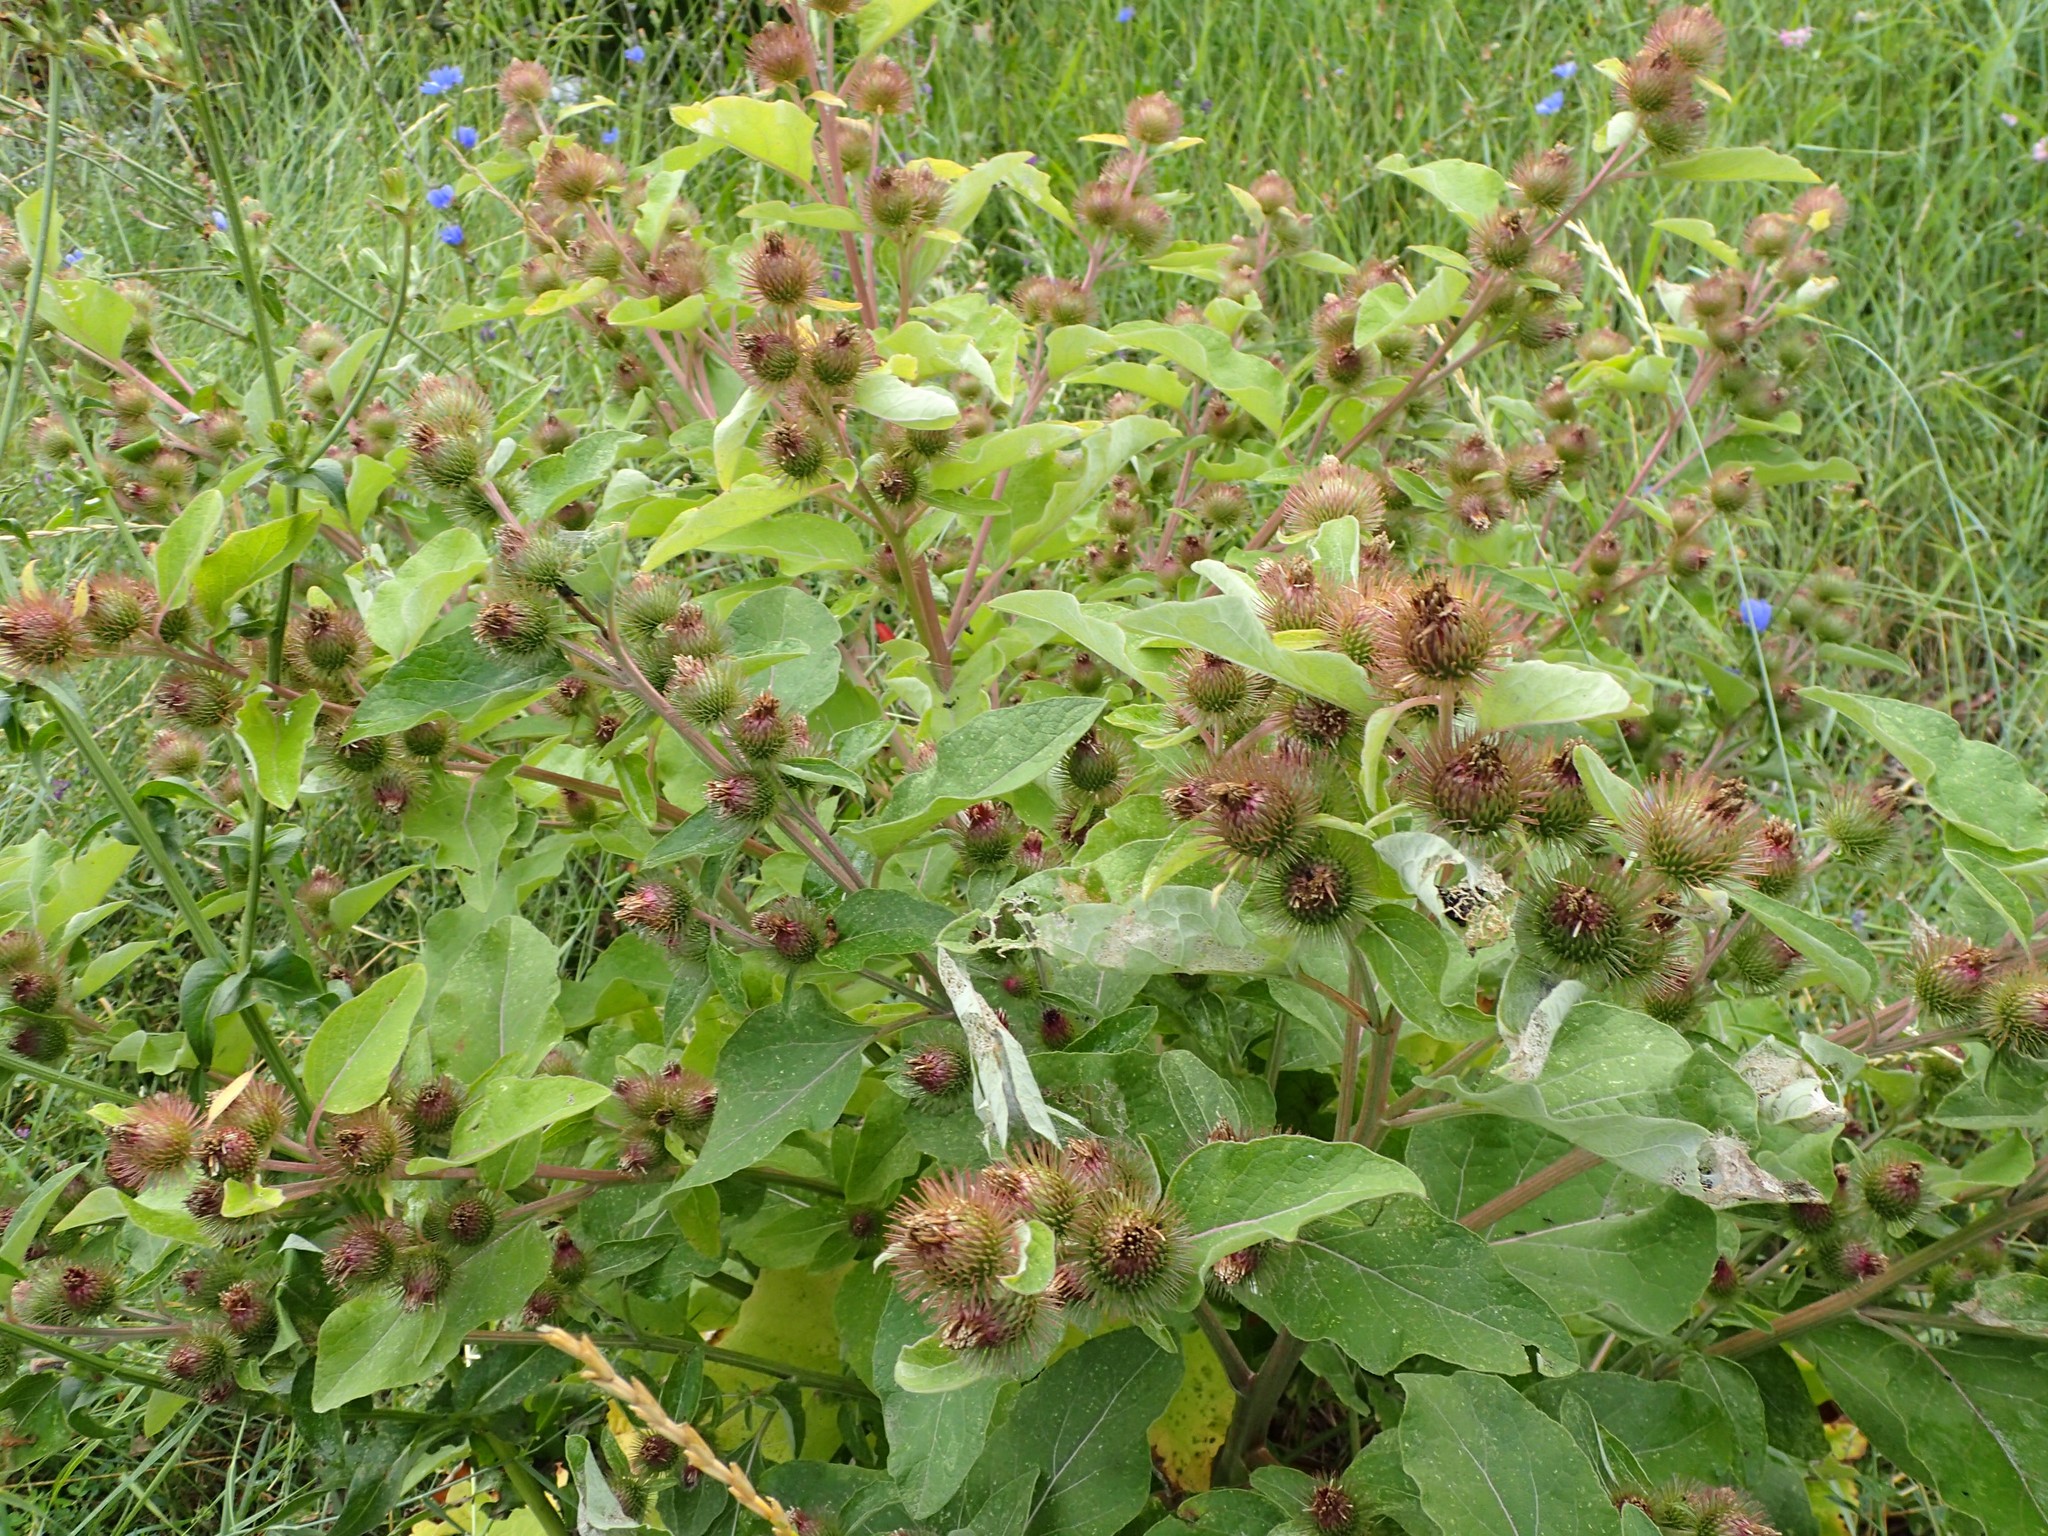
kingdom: Plantae
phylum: Tracheophyta
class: Magnoliopsida
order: Asterales
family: Asteraceae
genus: Arctium
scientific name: Arctium minus
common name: Lesser burdock
